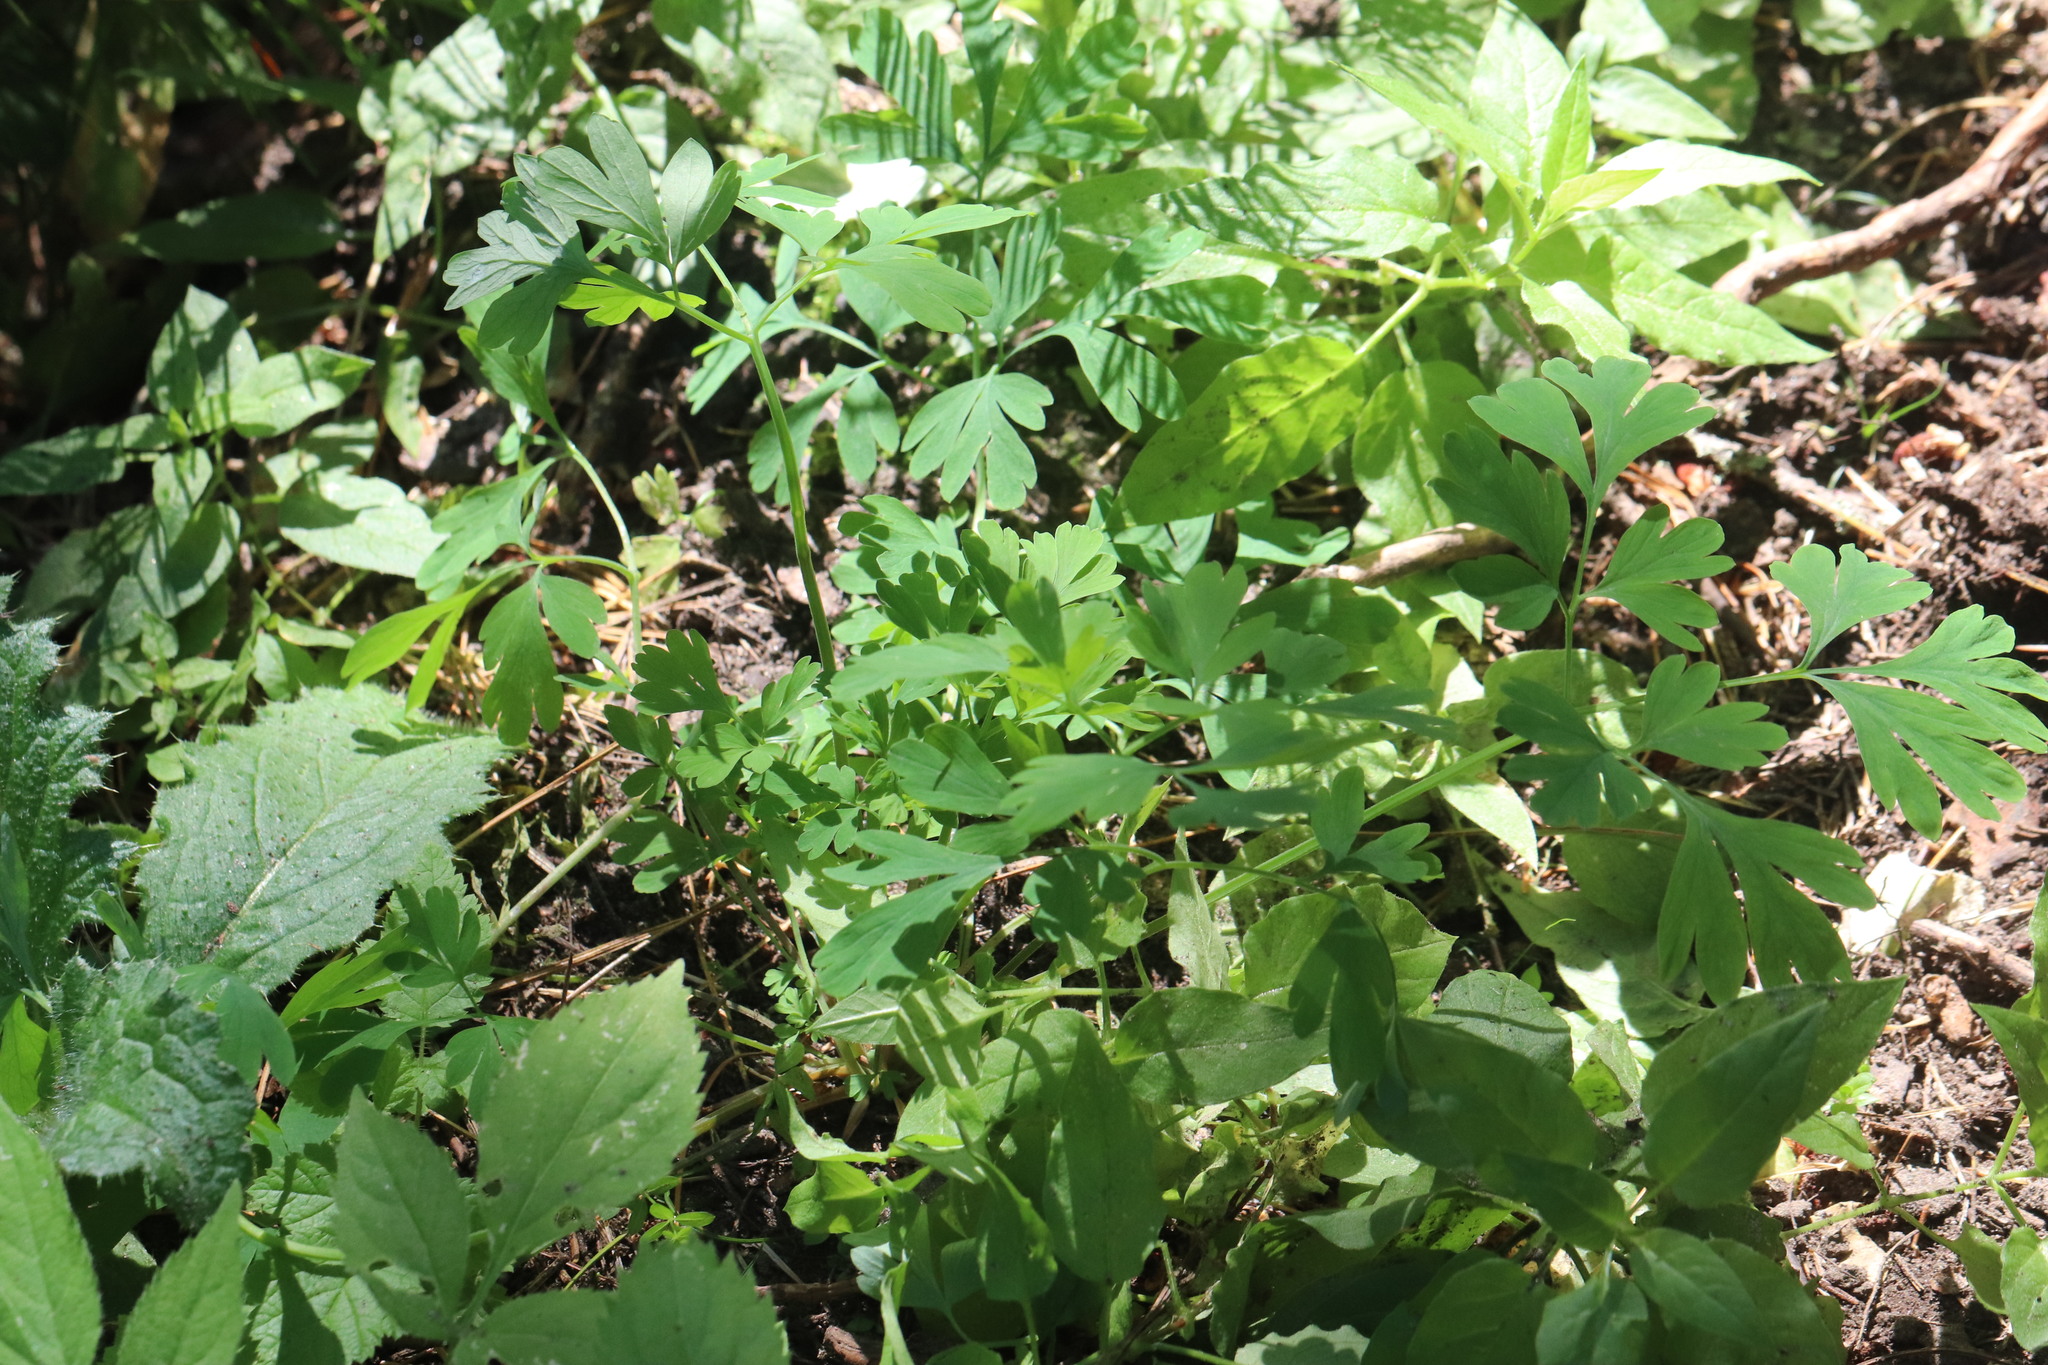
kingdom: Plantae
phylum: Tracheophyta
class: Magnoliopsida
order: Ranunculales
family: Papaveraceae
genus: Corydalis
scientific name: Corydalis capnoides
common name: Beaked corydalis
